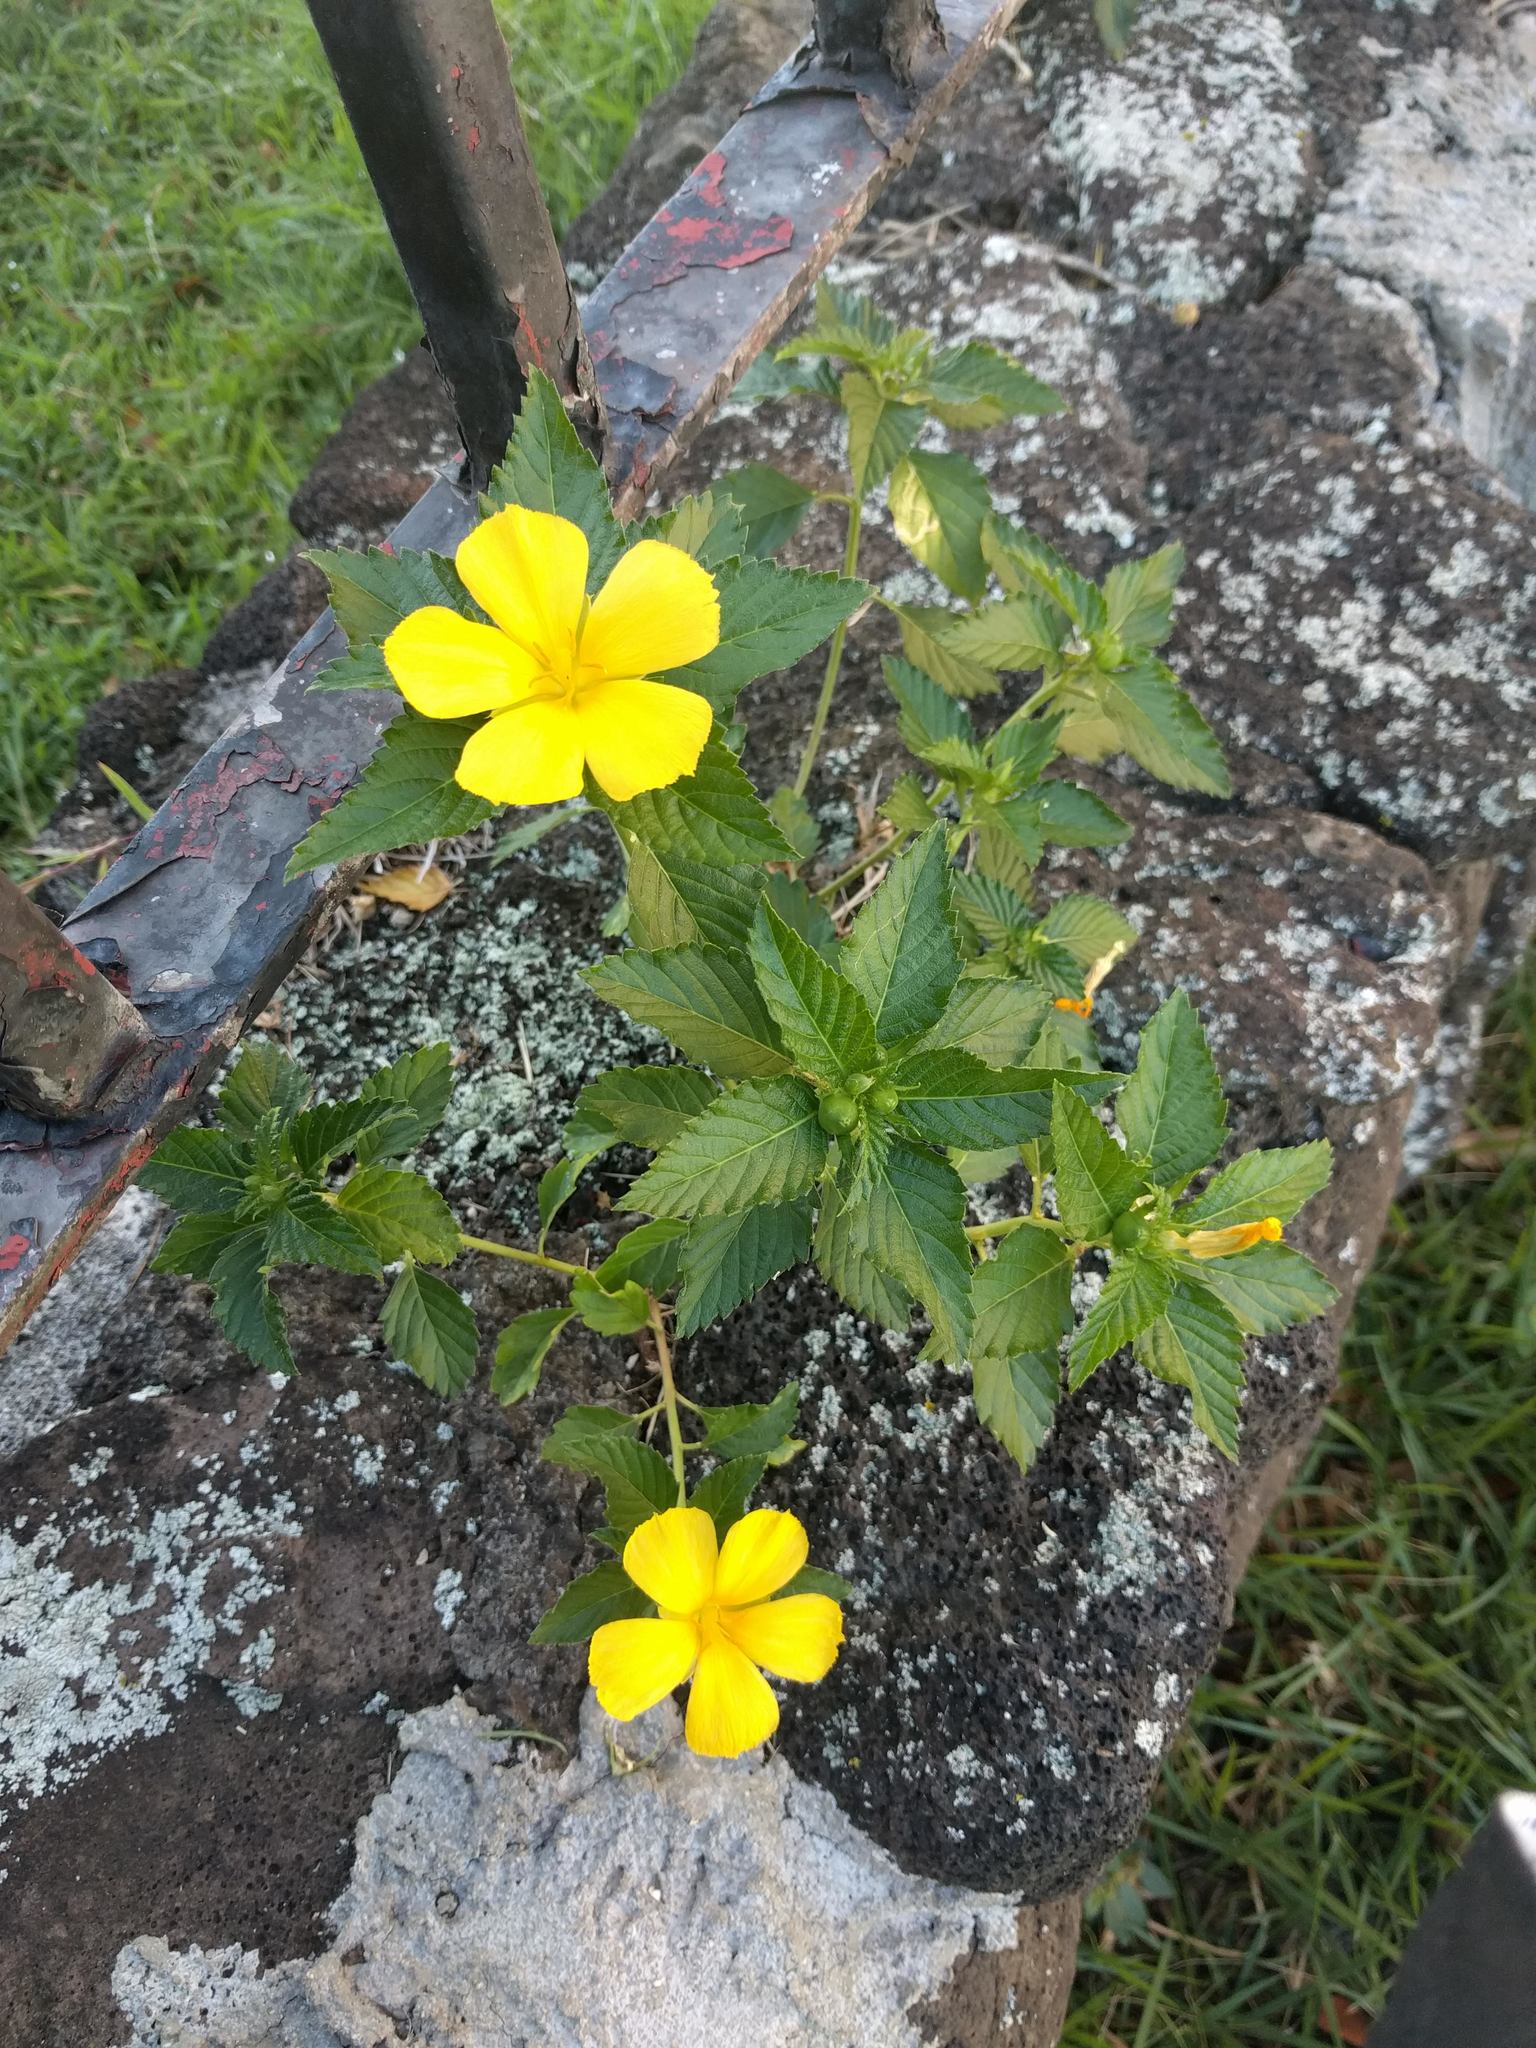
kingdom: Plantae
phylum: Tracheophyta
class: Magnoliopsida
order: Malpighiales
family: Turneraceae
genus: Turnera
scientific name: Turnera ulmifolia
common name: Ramgoat dashalong
